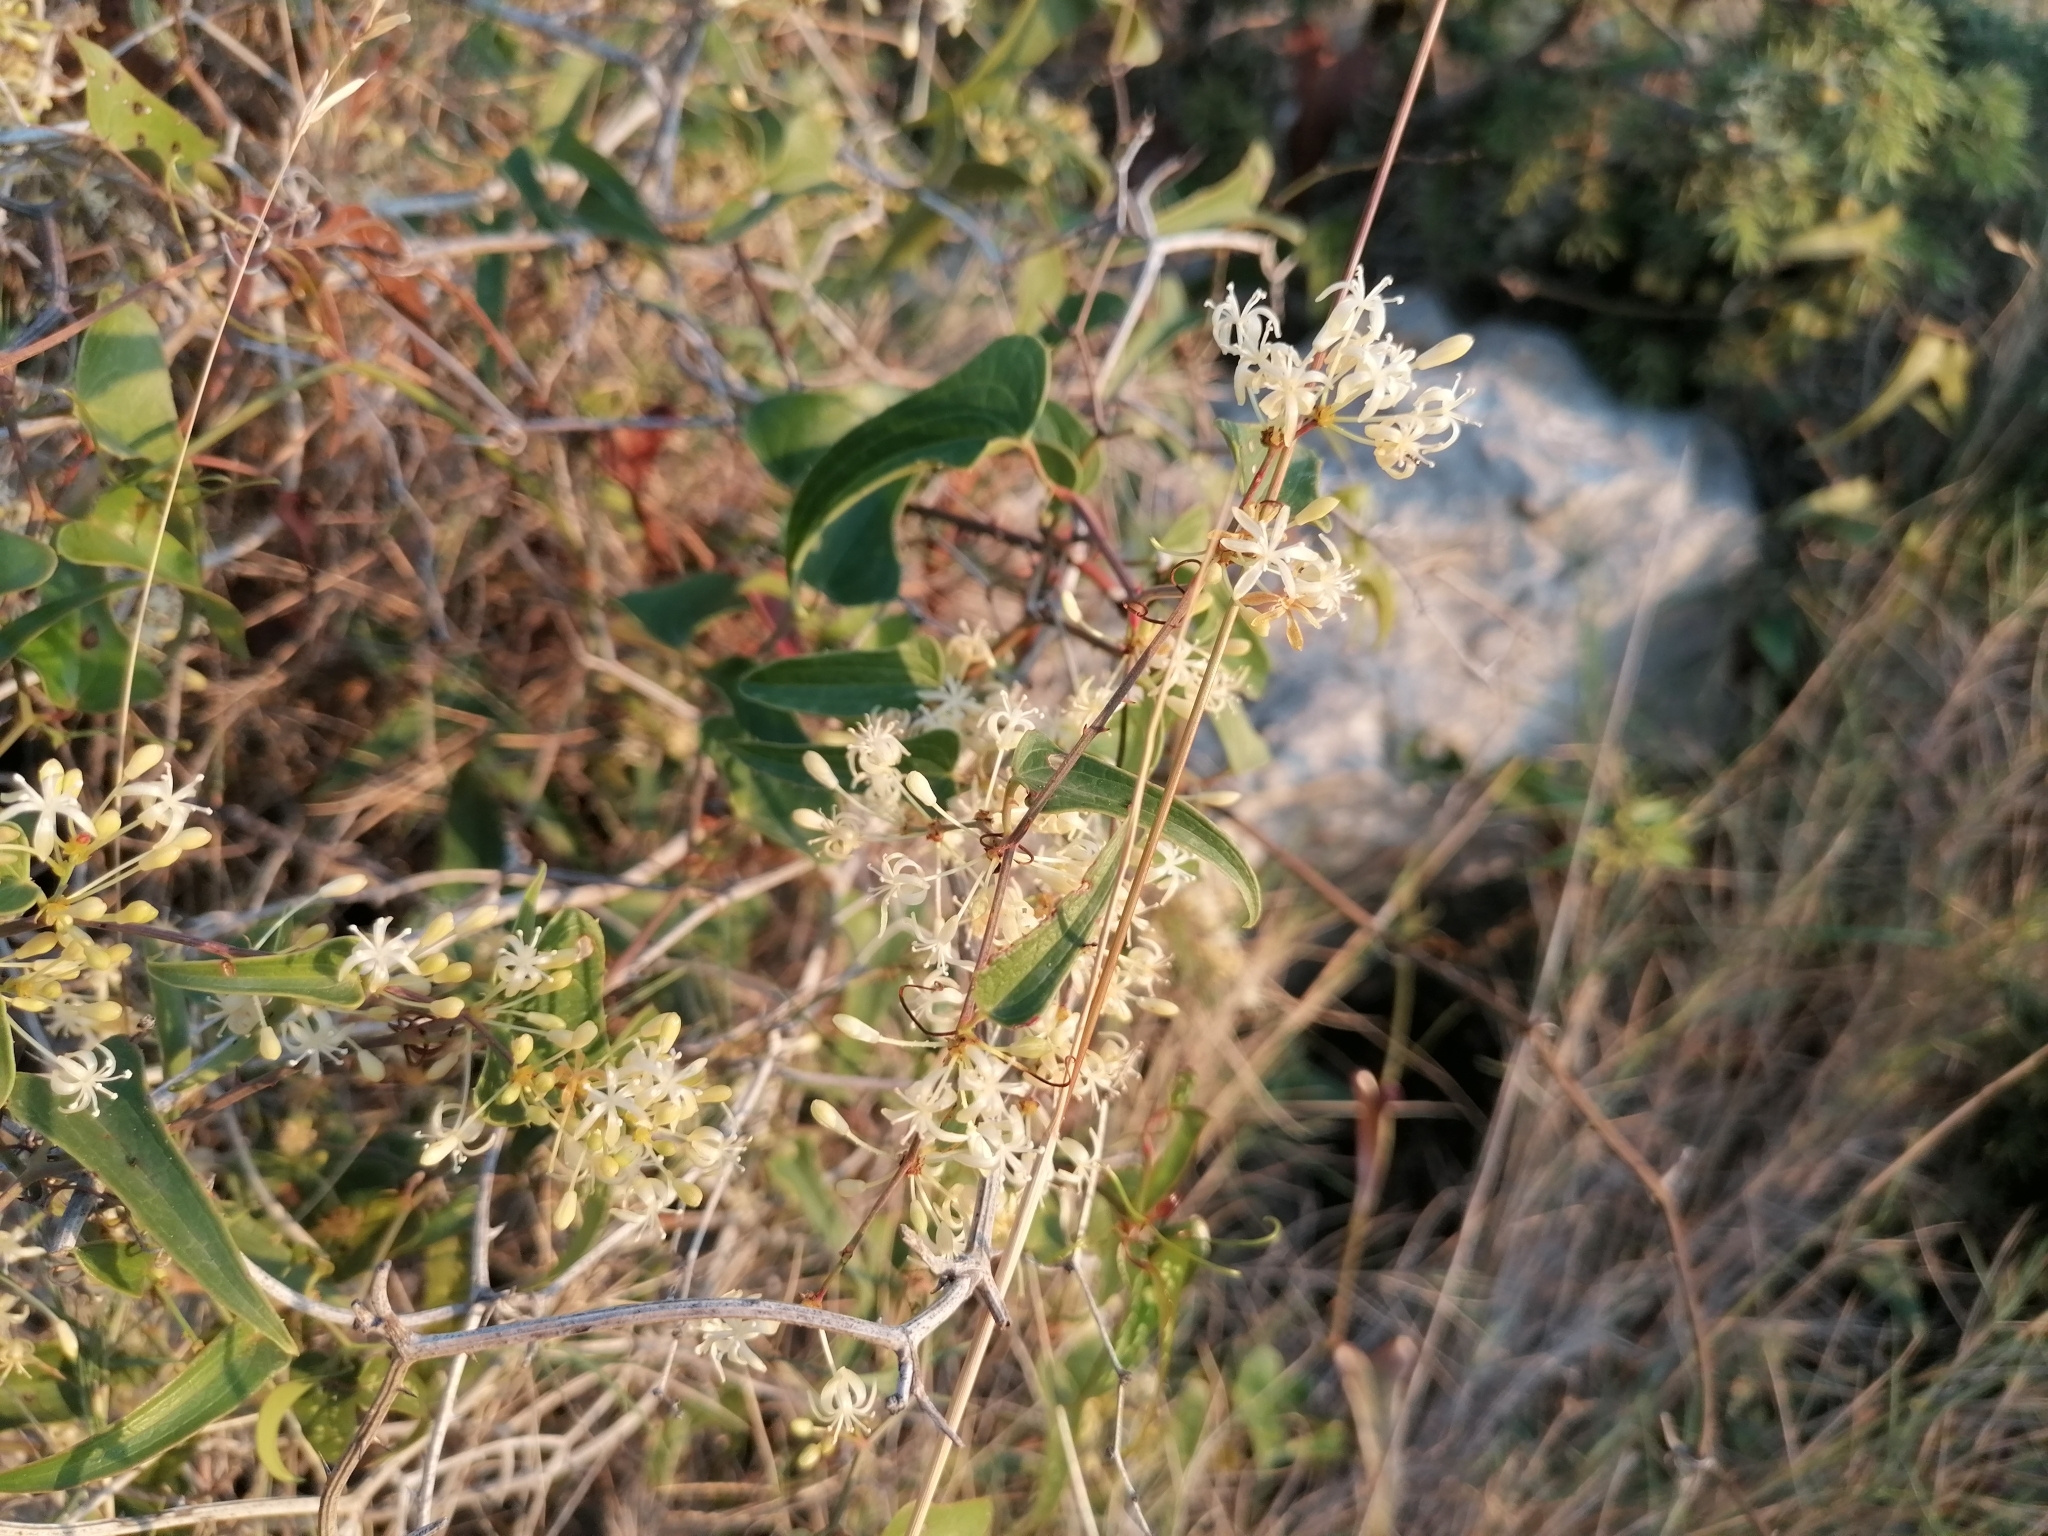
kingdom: Plantae
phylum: Tracheophyta
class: Liliopsida
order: Liliales
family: Smilacaceae
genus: Smilax
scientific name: Smilax aspera
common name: Common smilax
